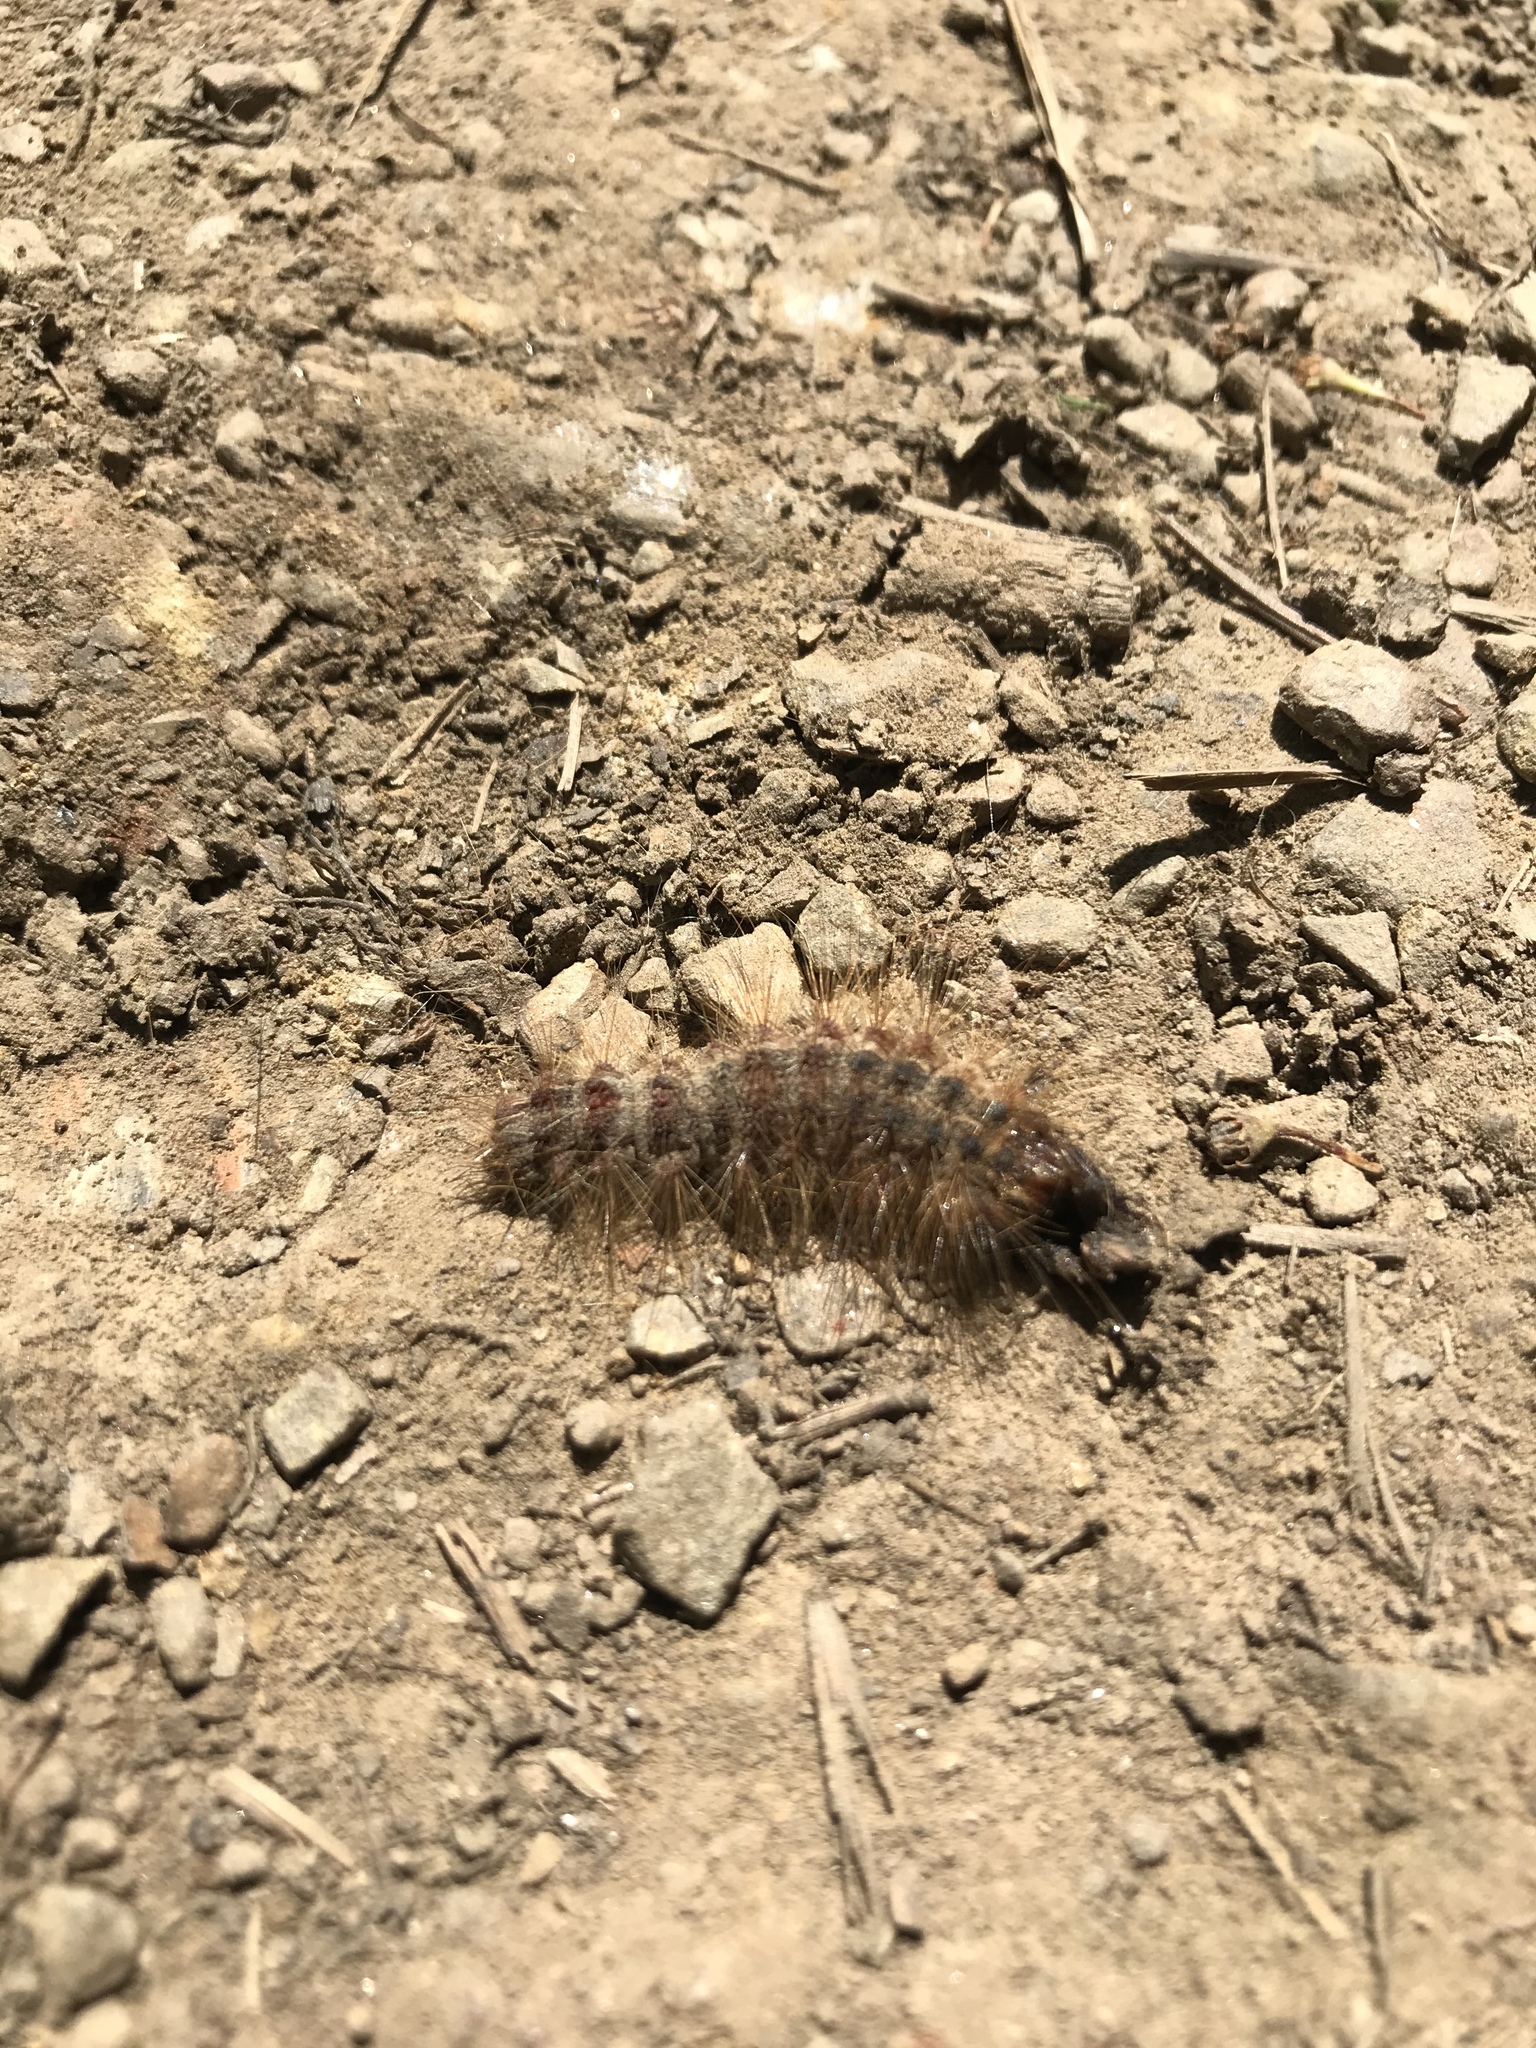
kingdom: Animalia
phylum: Arthropoda
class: Insecta
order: Lepidoptera
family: Erebidae
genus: Lymantria
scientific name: Lymantria dispar
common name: Gypsy moth
